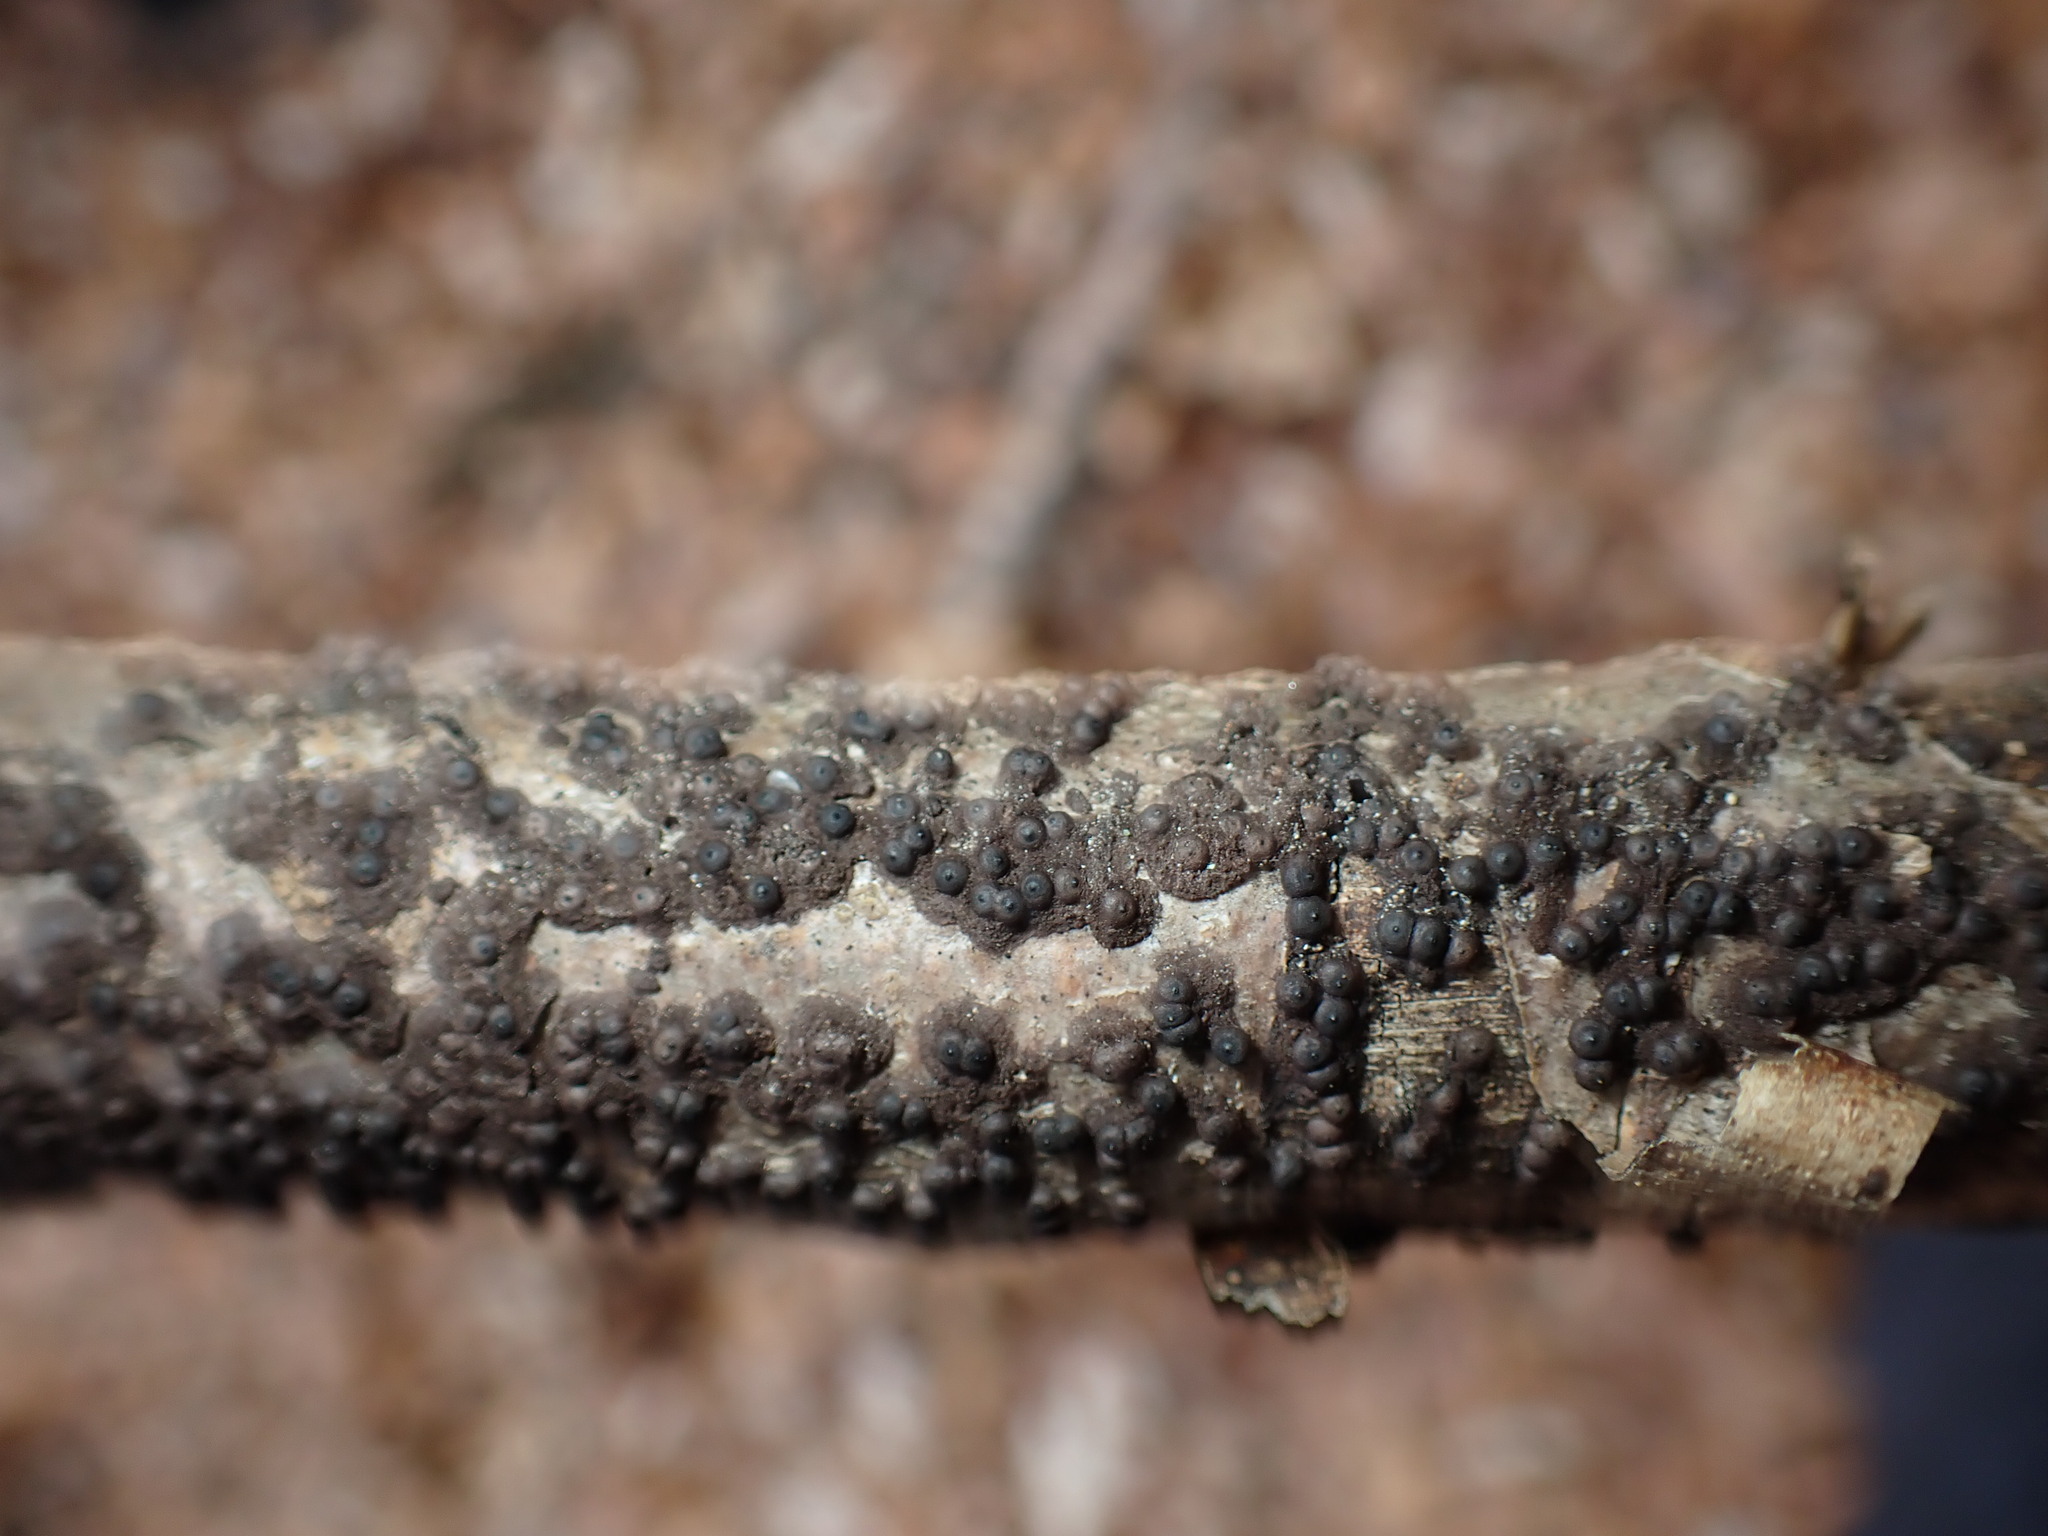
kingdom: Fungi
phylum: Ascomycota
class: Sordariomycetes
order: Xylariales
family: Xylariaceae
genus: Rosellinia
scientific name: Rosellinia corticium
